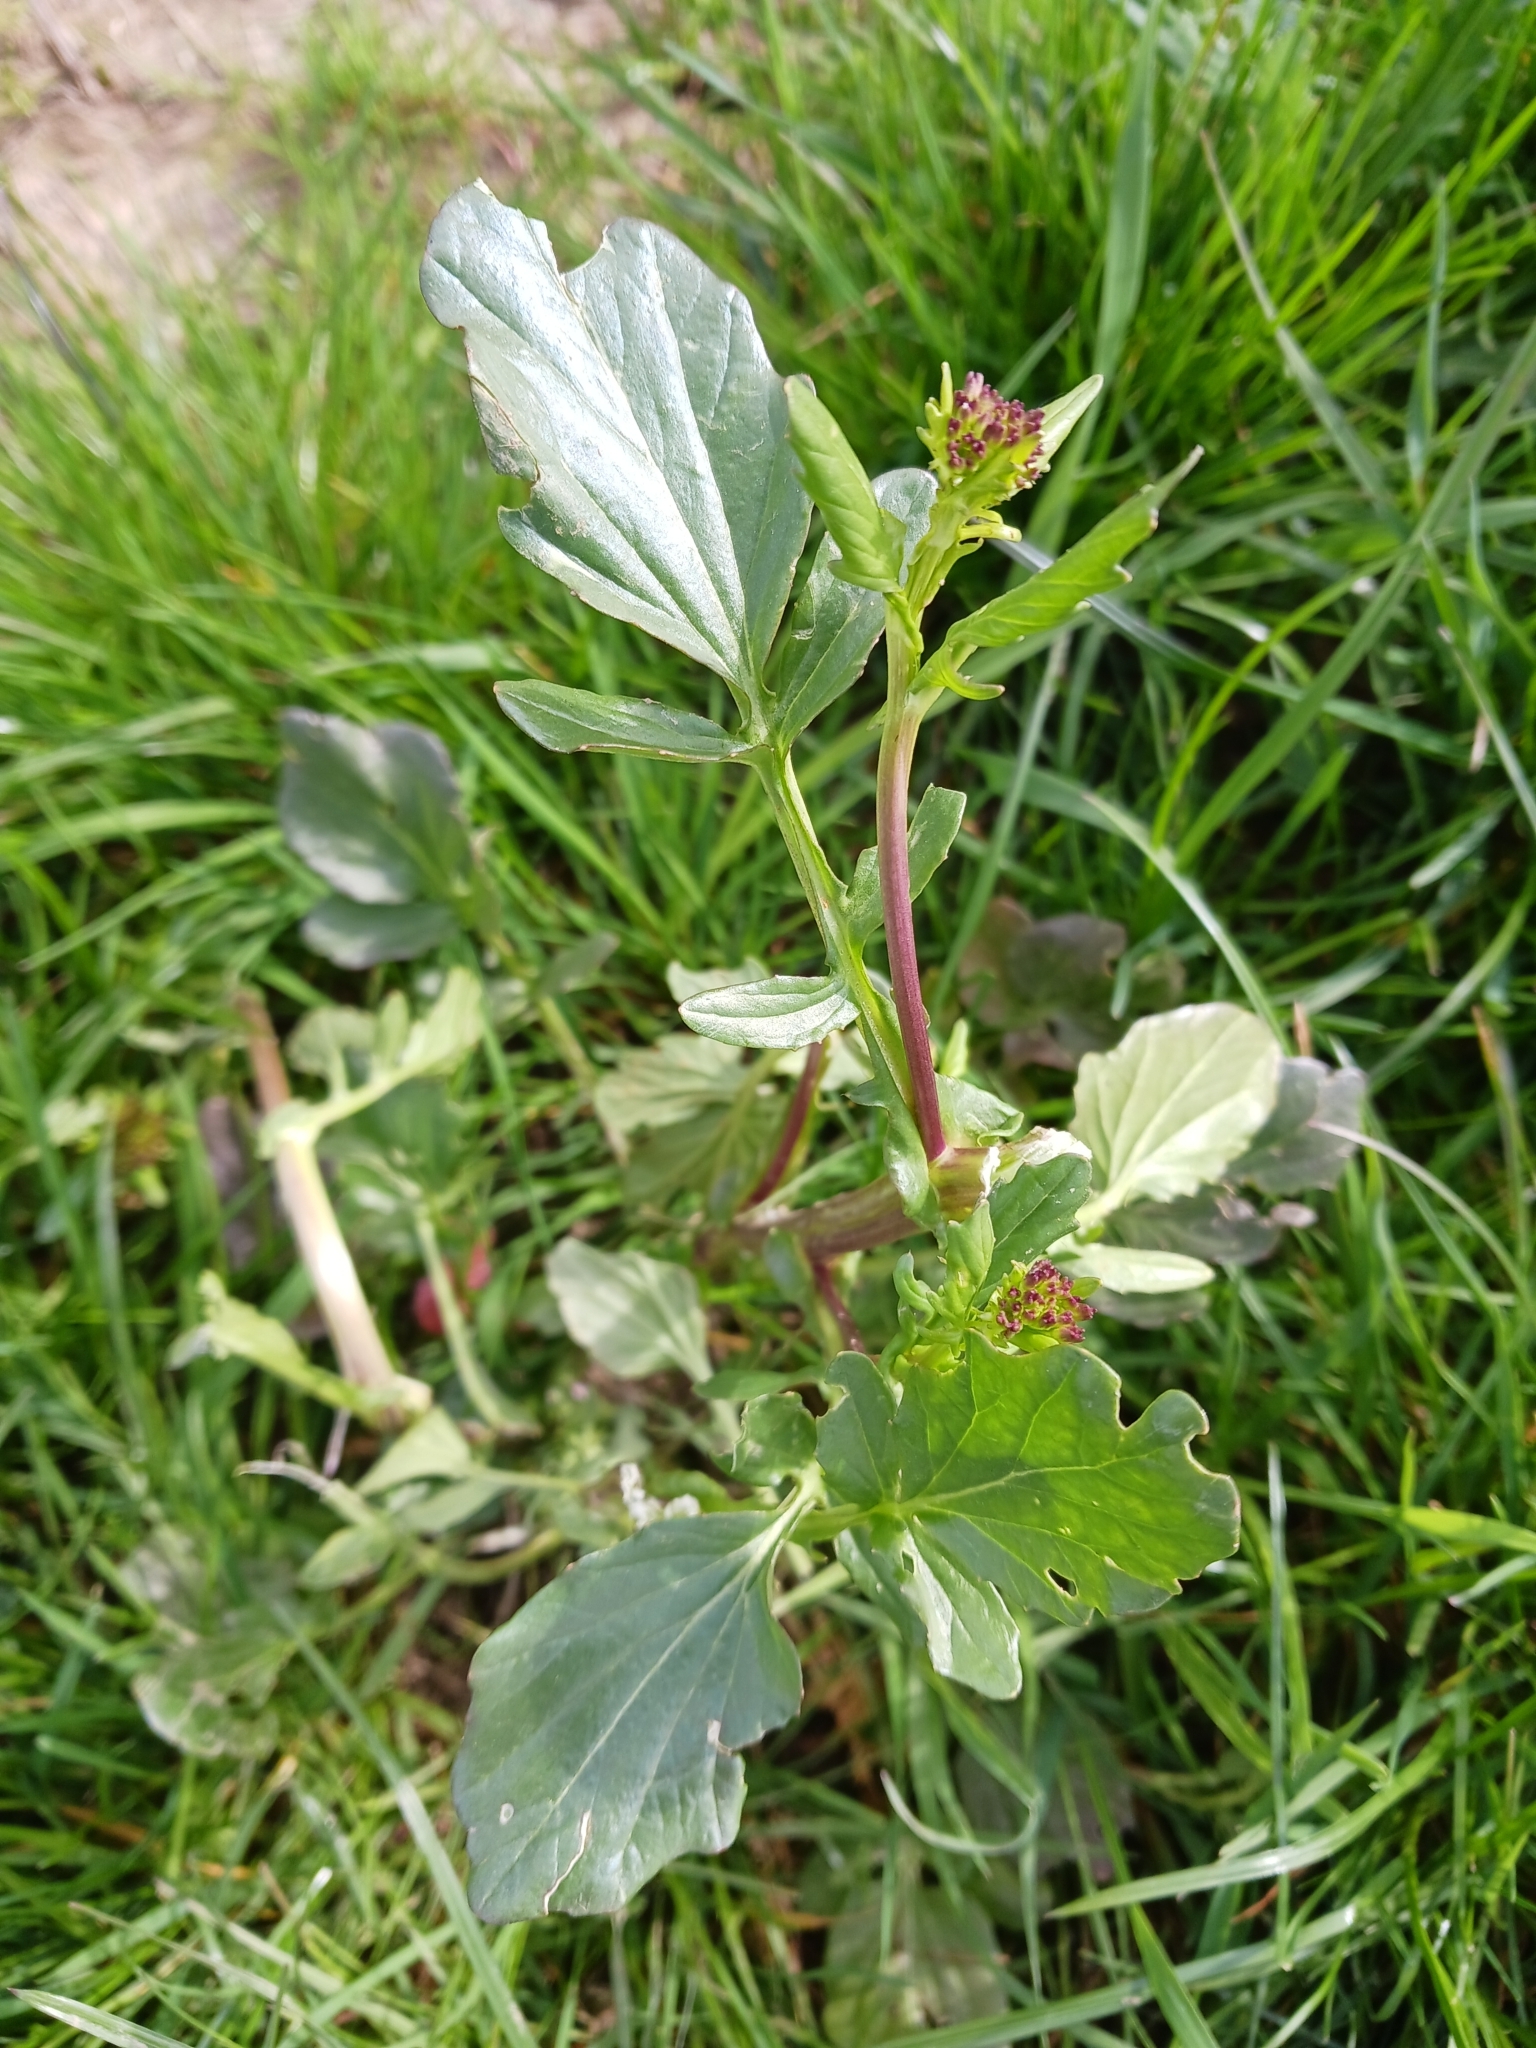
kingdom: Plantae
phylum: Tracheophyta
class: Magnoliopsida
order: Brassicales
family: Brassicaceae
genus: Barbarea
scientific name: Barbarea vulgaris
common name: Cressy-greens
